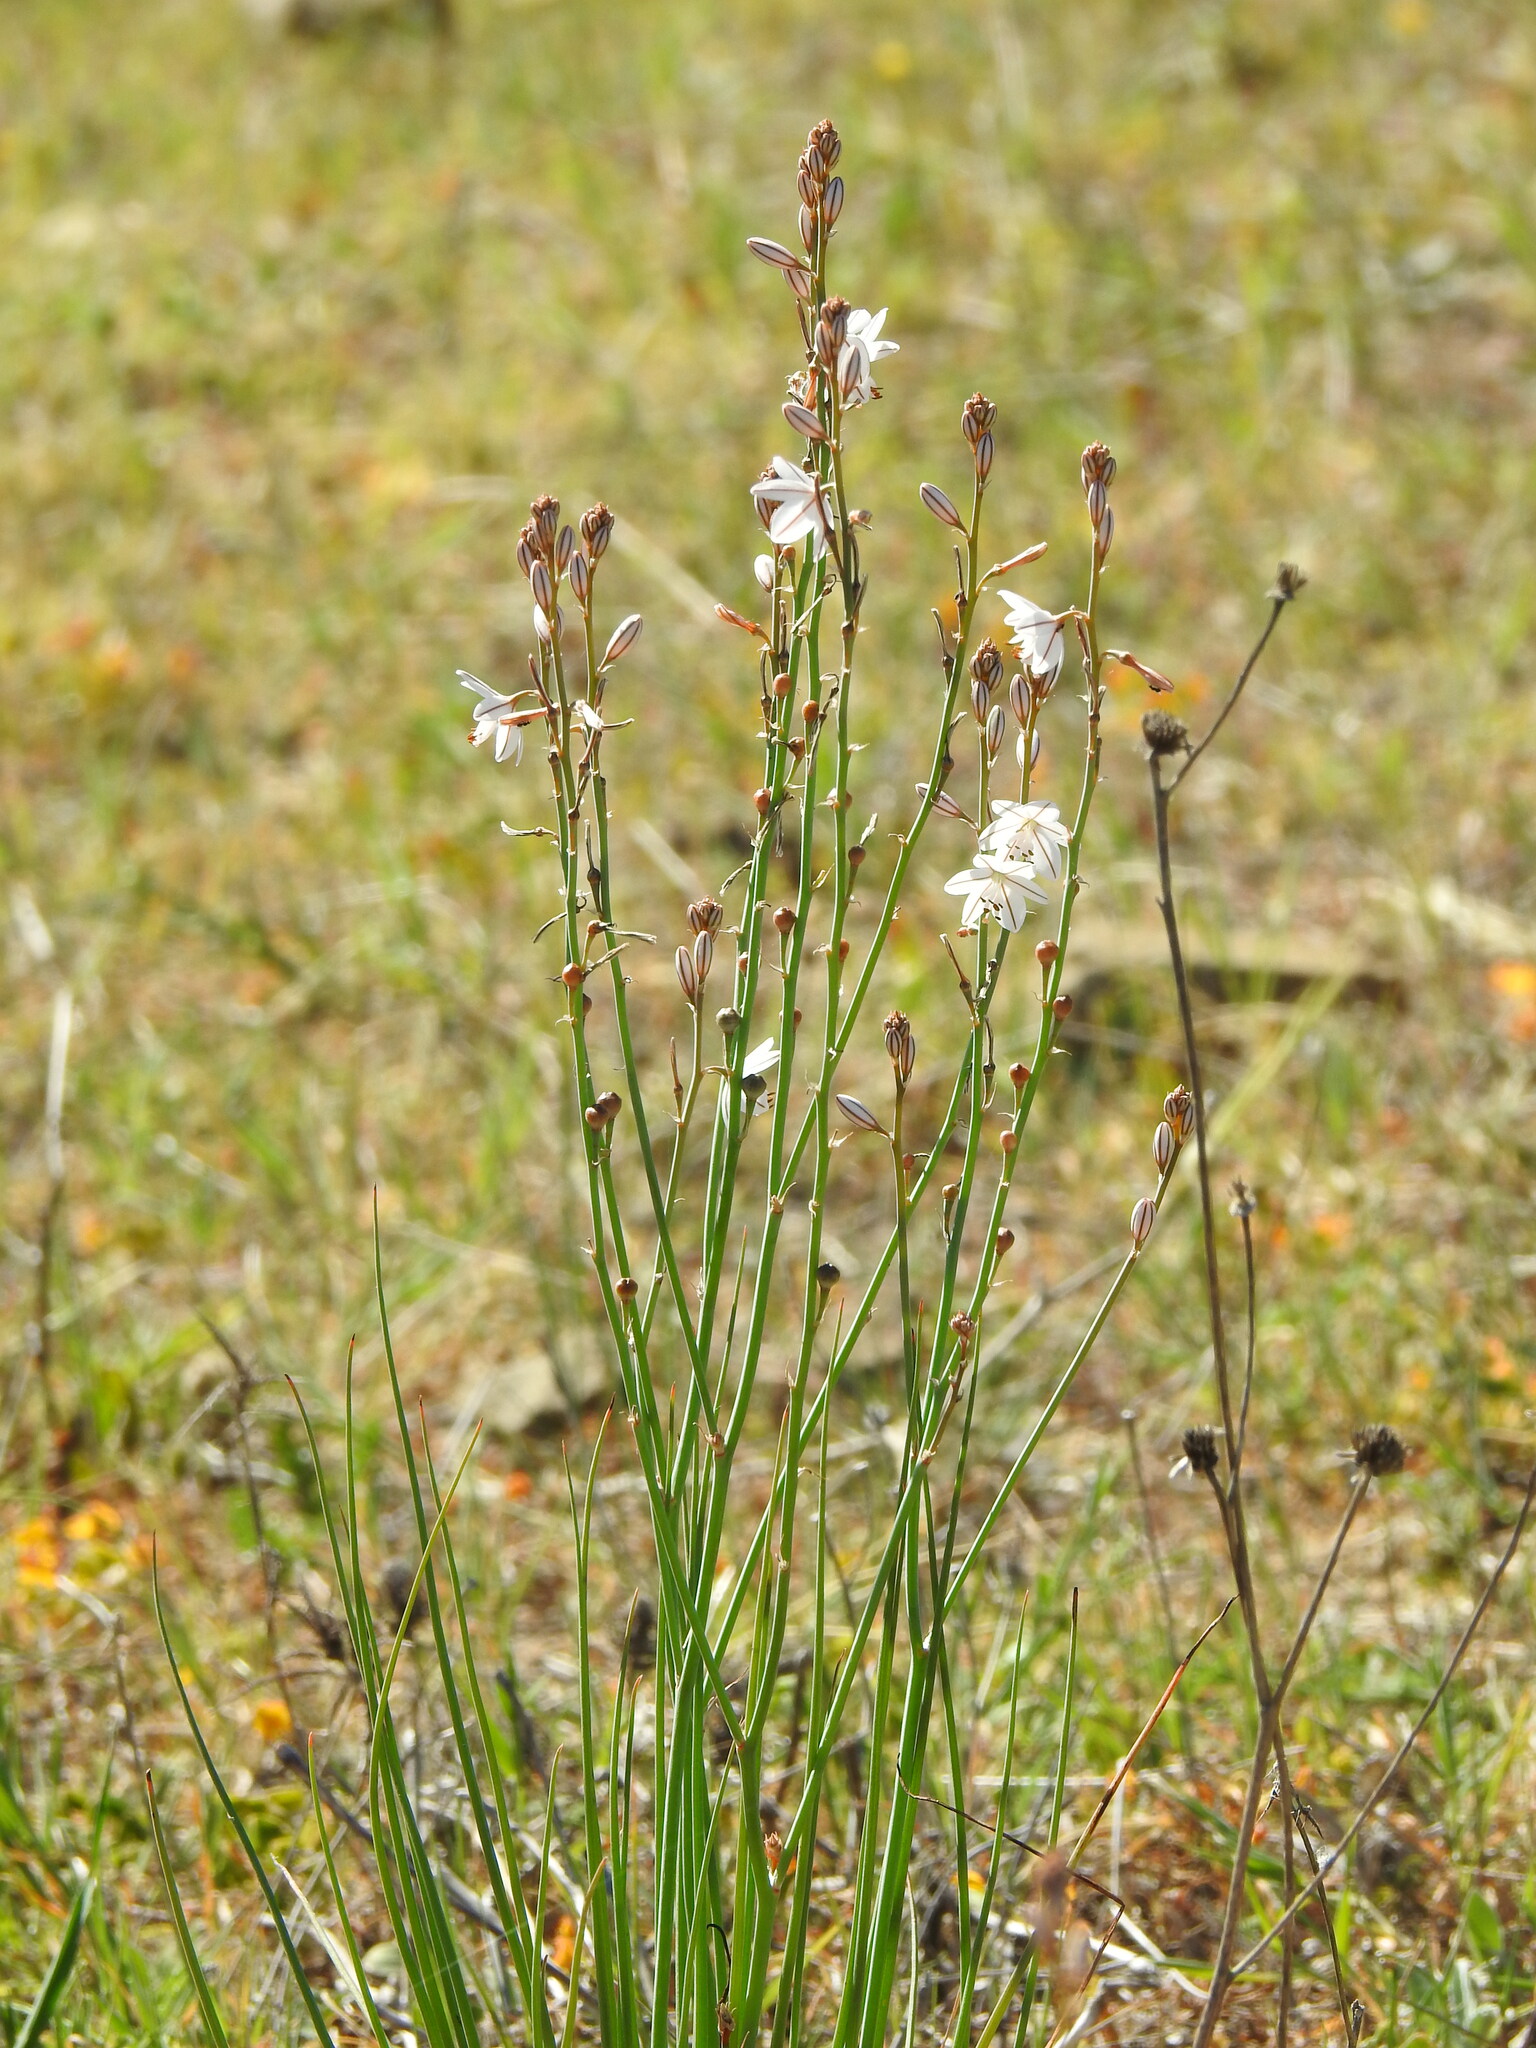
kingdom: Plantae
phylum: Tracheophyta
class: Liliopsida
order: Asparagales
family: Asphodelaceae
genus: Asphodelus
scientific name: Asphodelus fistulosus
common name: Onionweed
